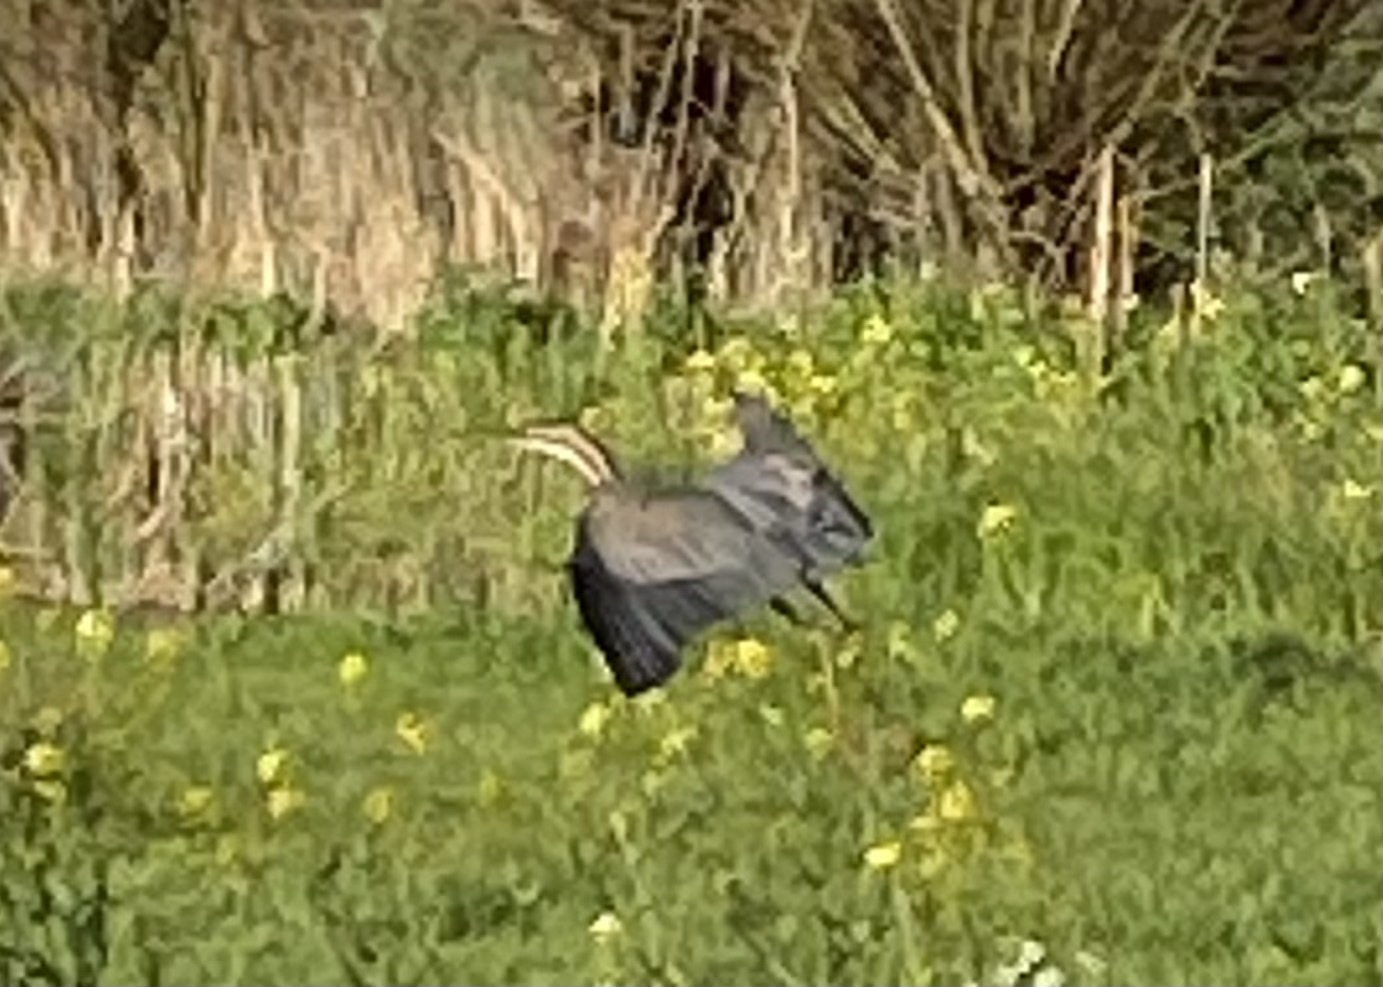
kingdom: Animalia
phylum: Chordata
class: Aves
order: Pelecaniformes
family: Ardeidae
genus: Ardea
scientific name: Ardea purpurea
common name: Purple heron
